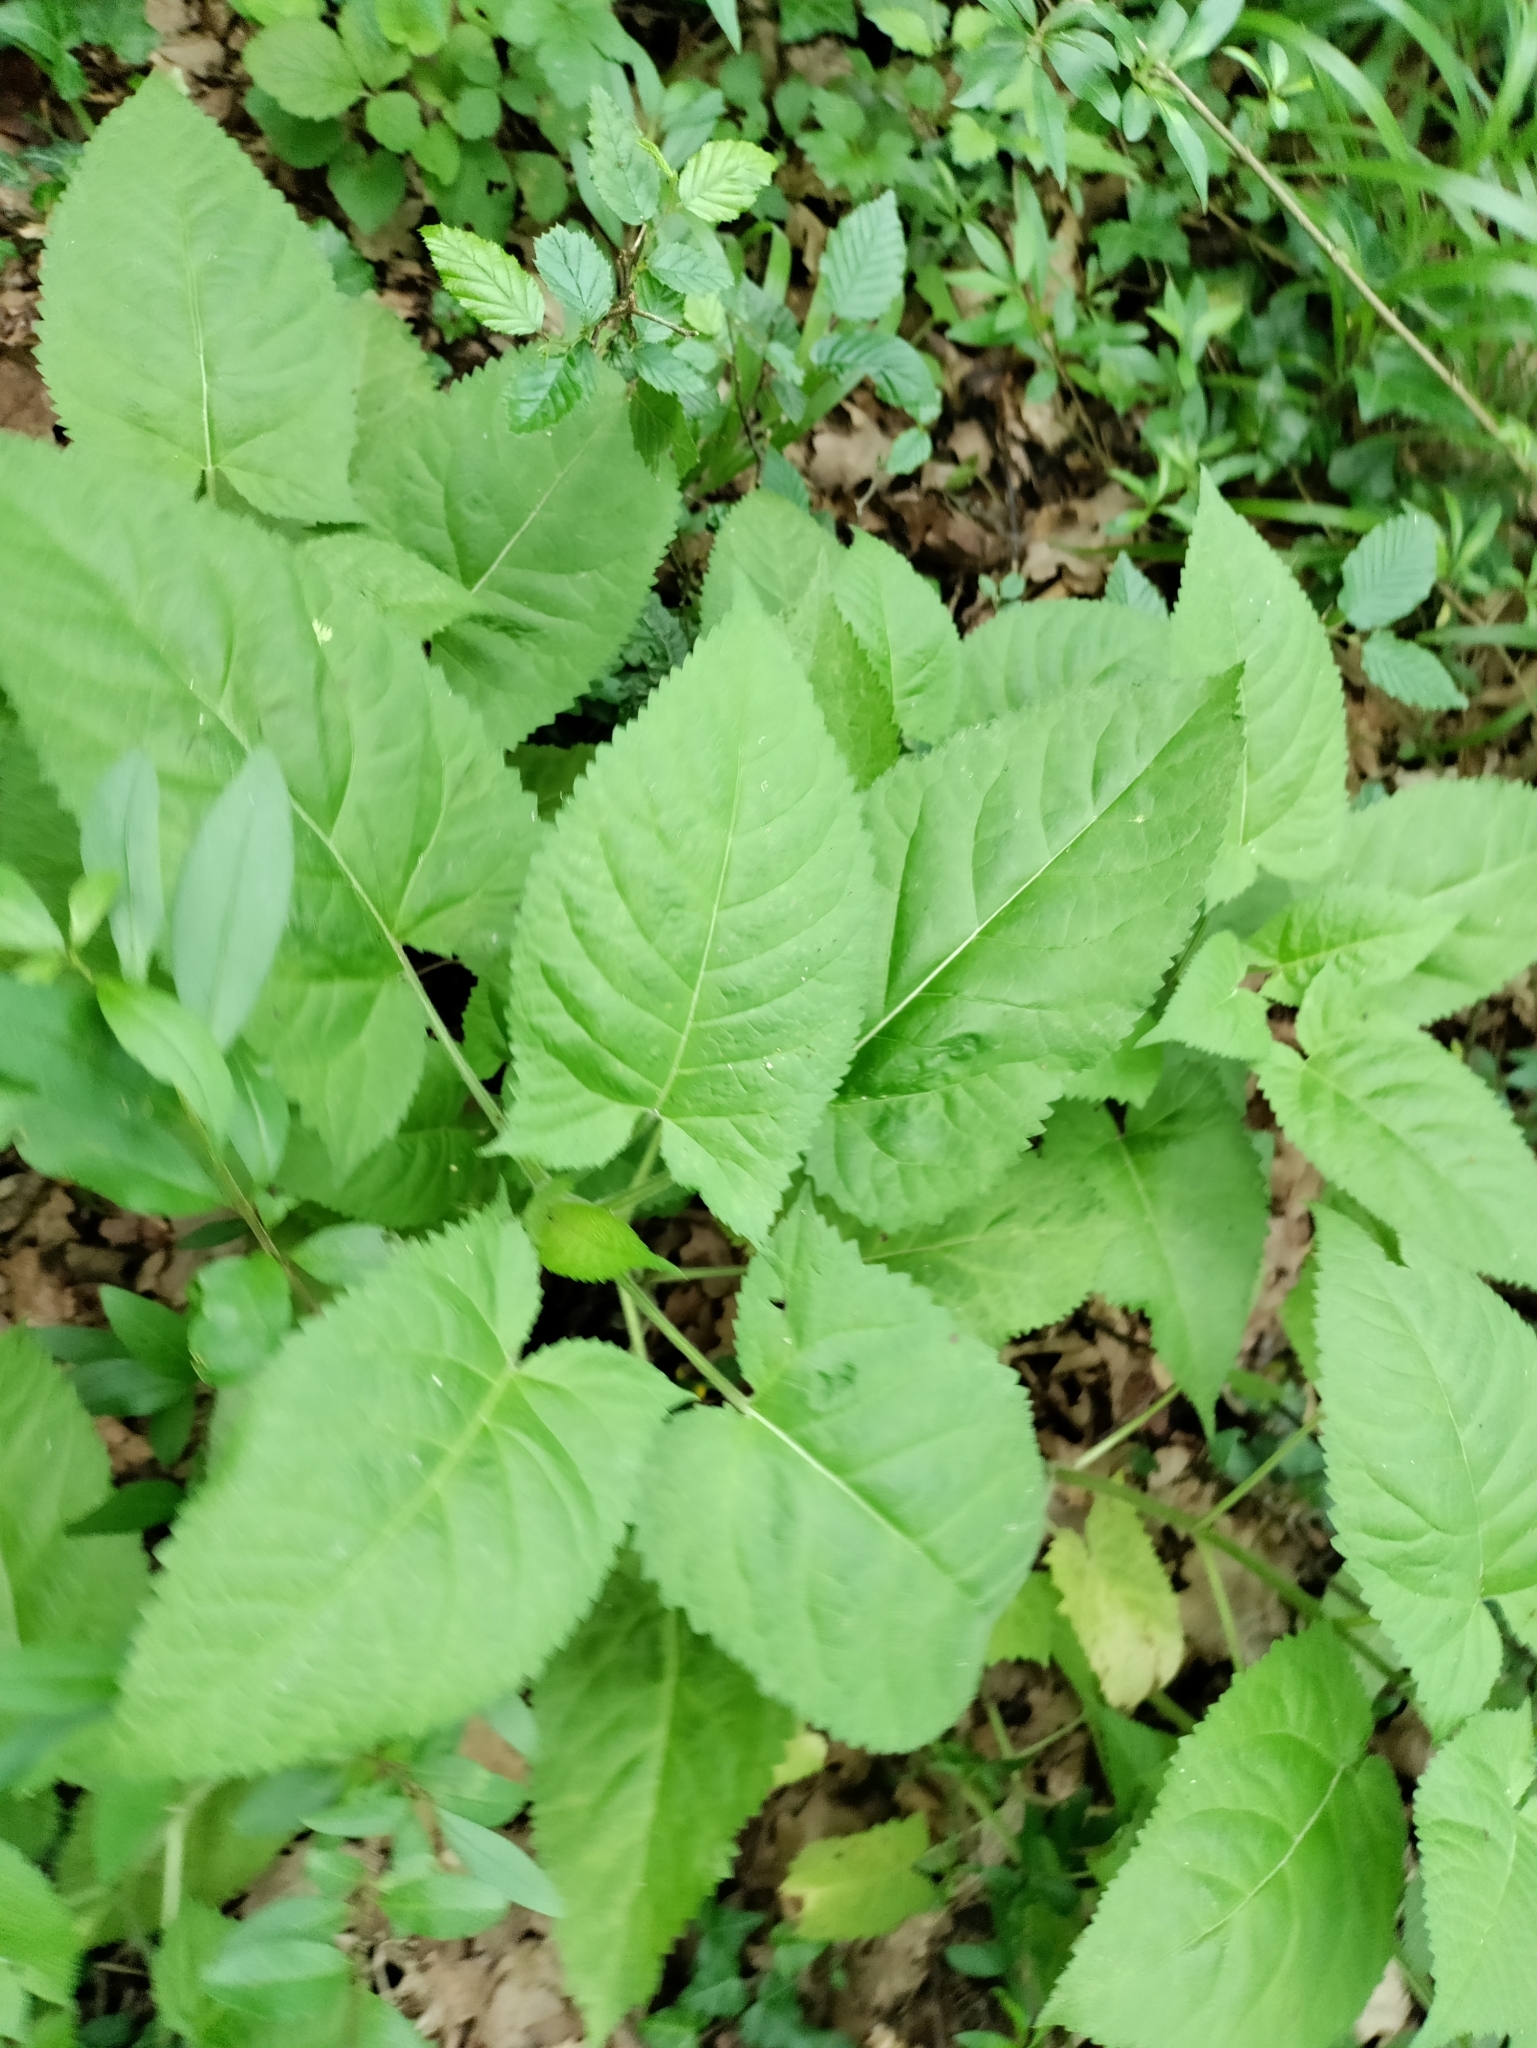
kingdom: Plantae
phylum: Tracheophyta
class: Magnoliopsida
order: Lamiales
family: Lamiaceae
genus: Salvia
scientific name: Salvia glutinosa
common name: Sticky clary
